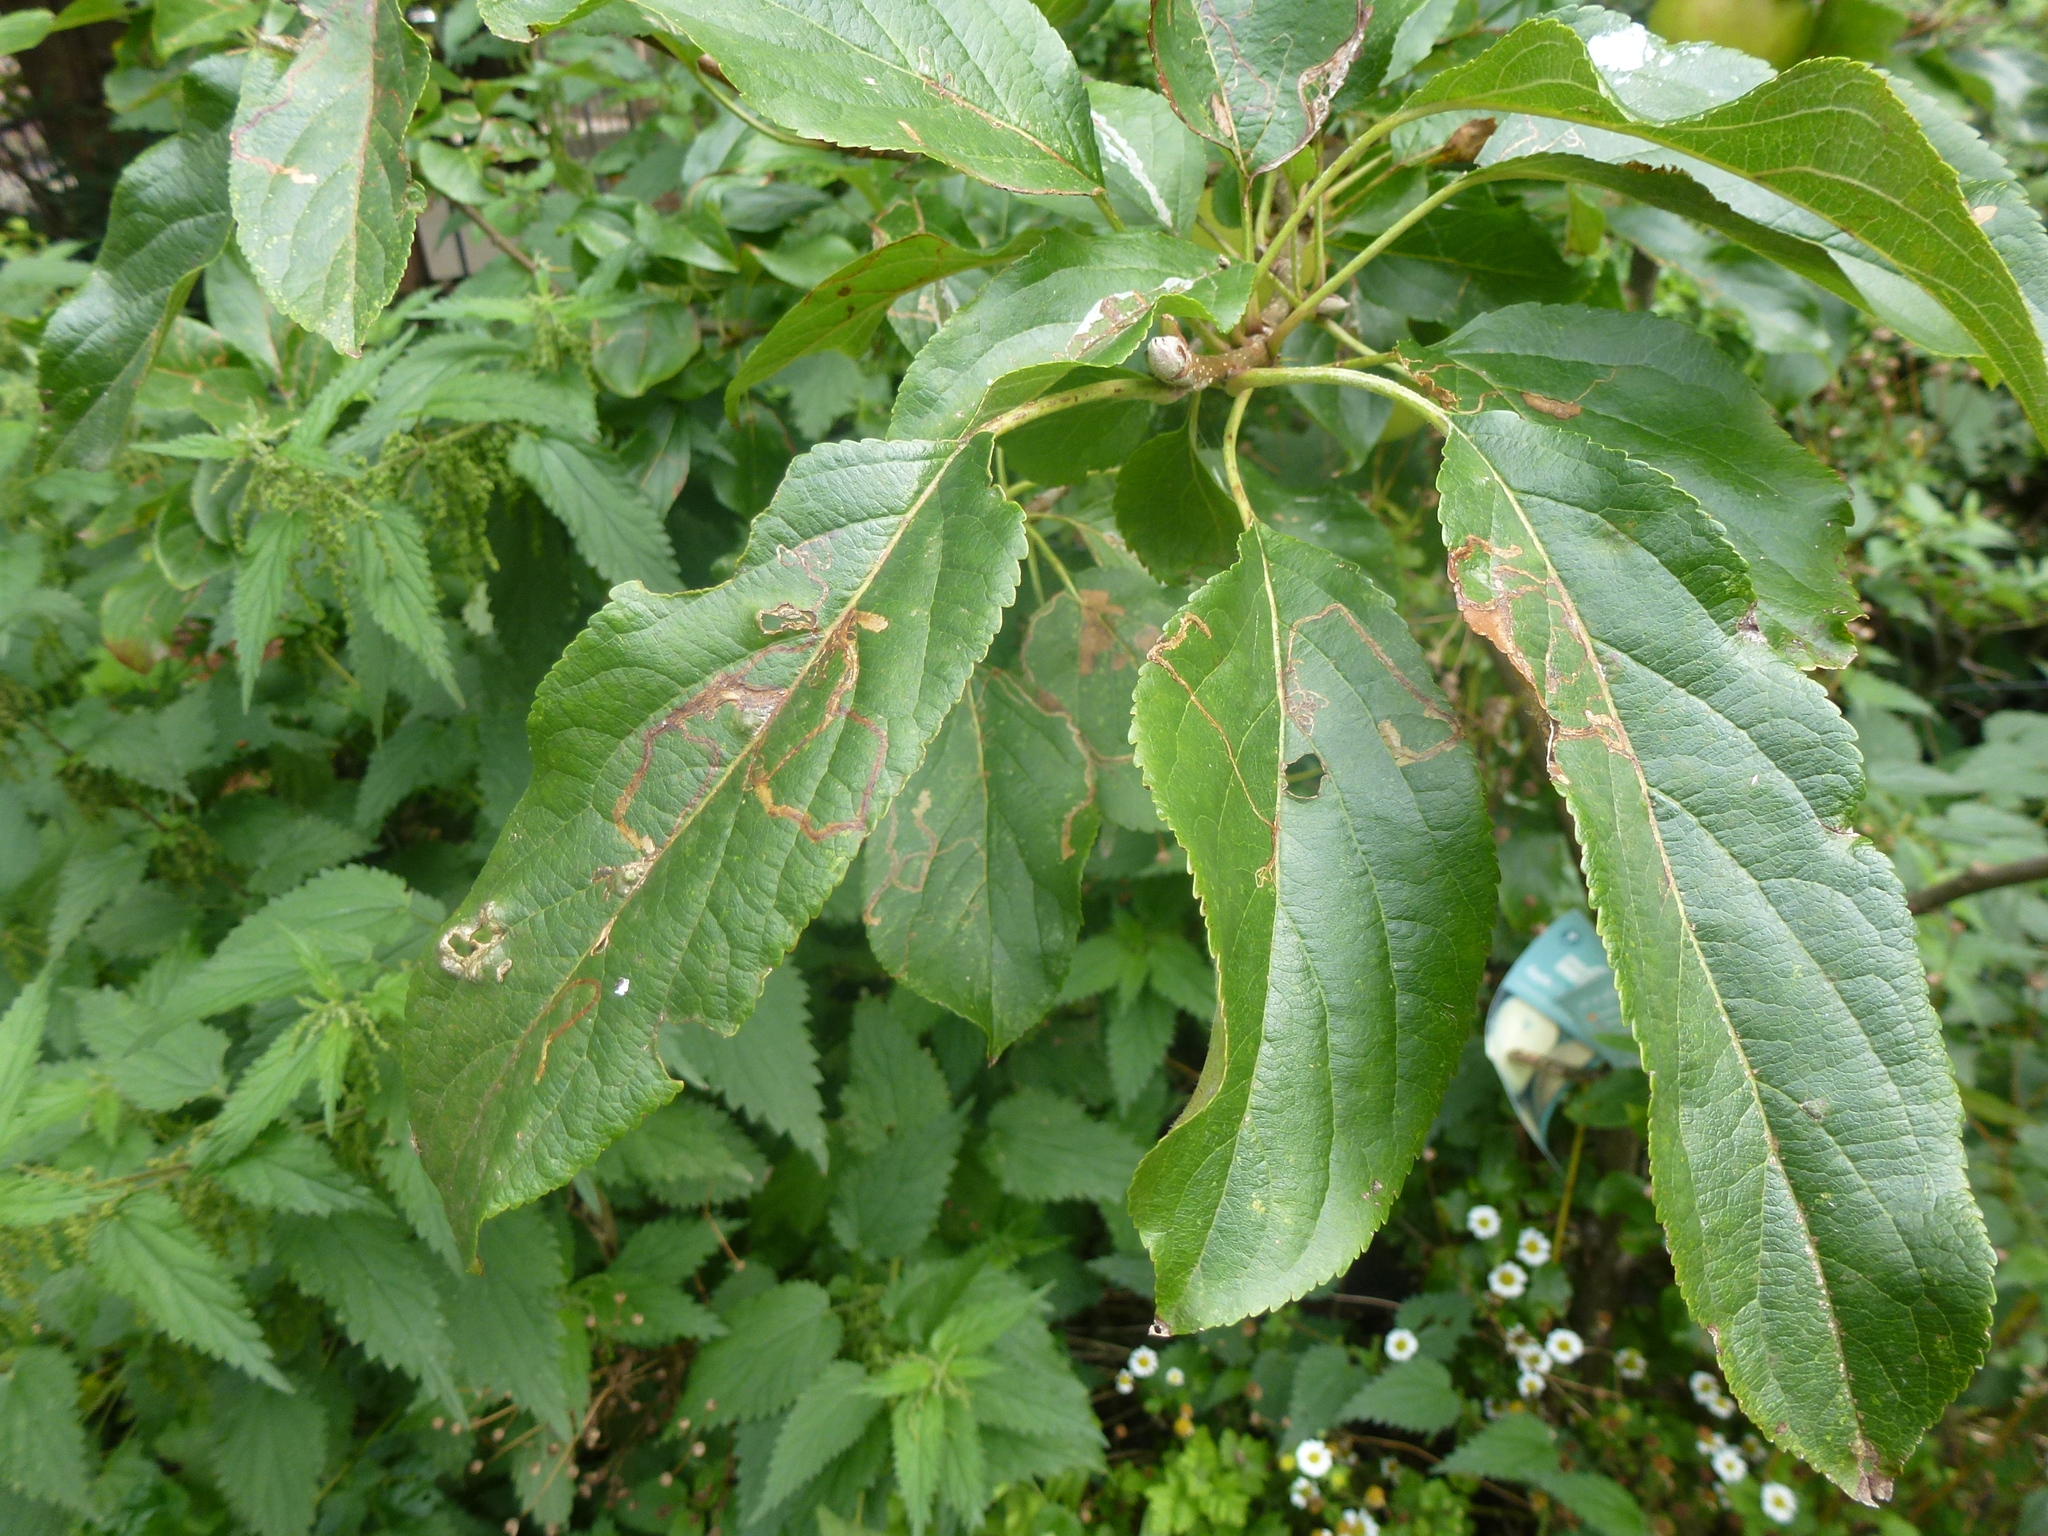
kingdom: Animalia
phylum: Arthropoda
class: Insecta
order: Lepidoptera
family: Lyonetiidae
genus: Lyonetia
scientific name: Lyonetia clerkella
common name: Apple leaf miner
